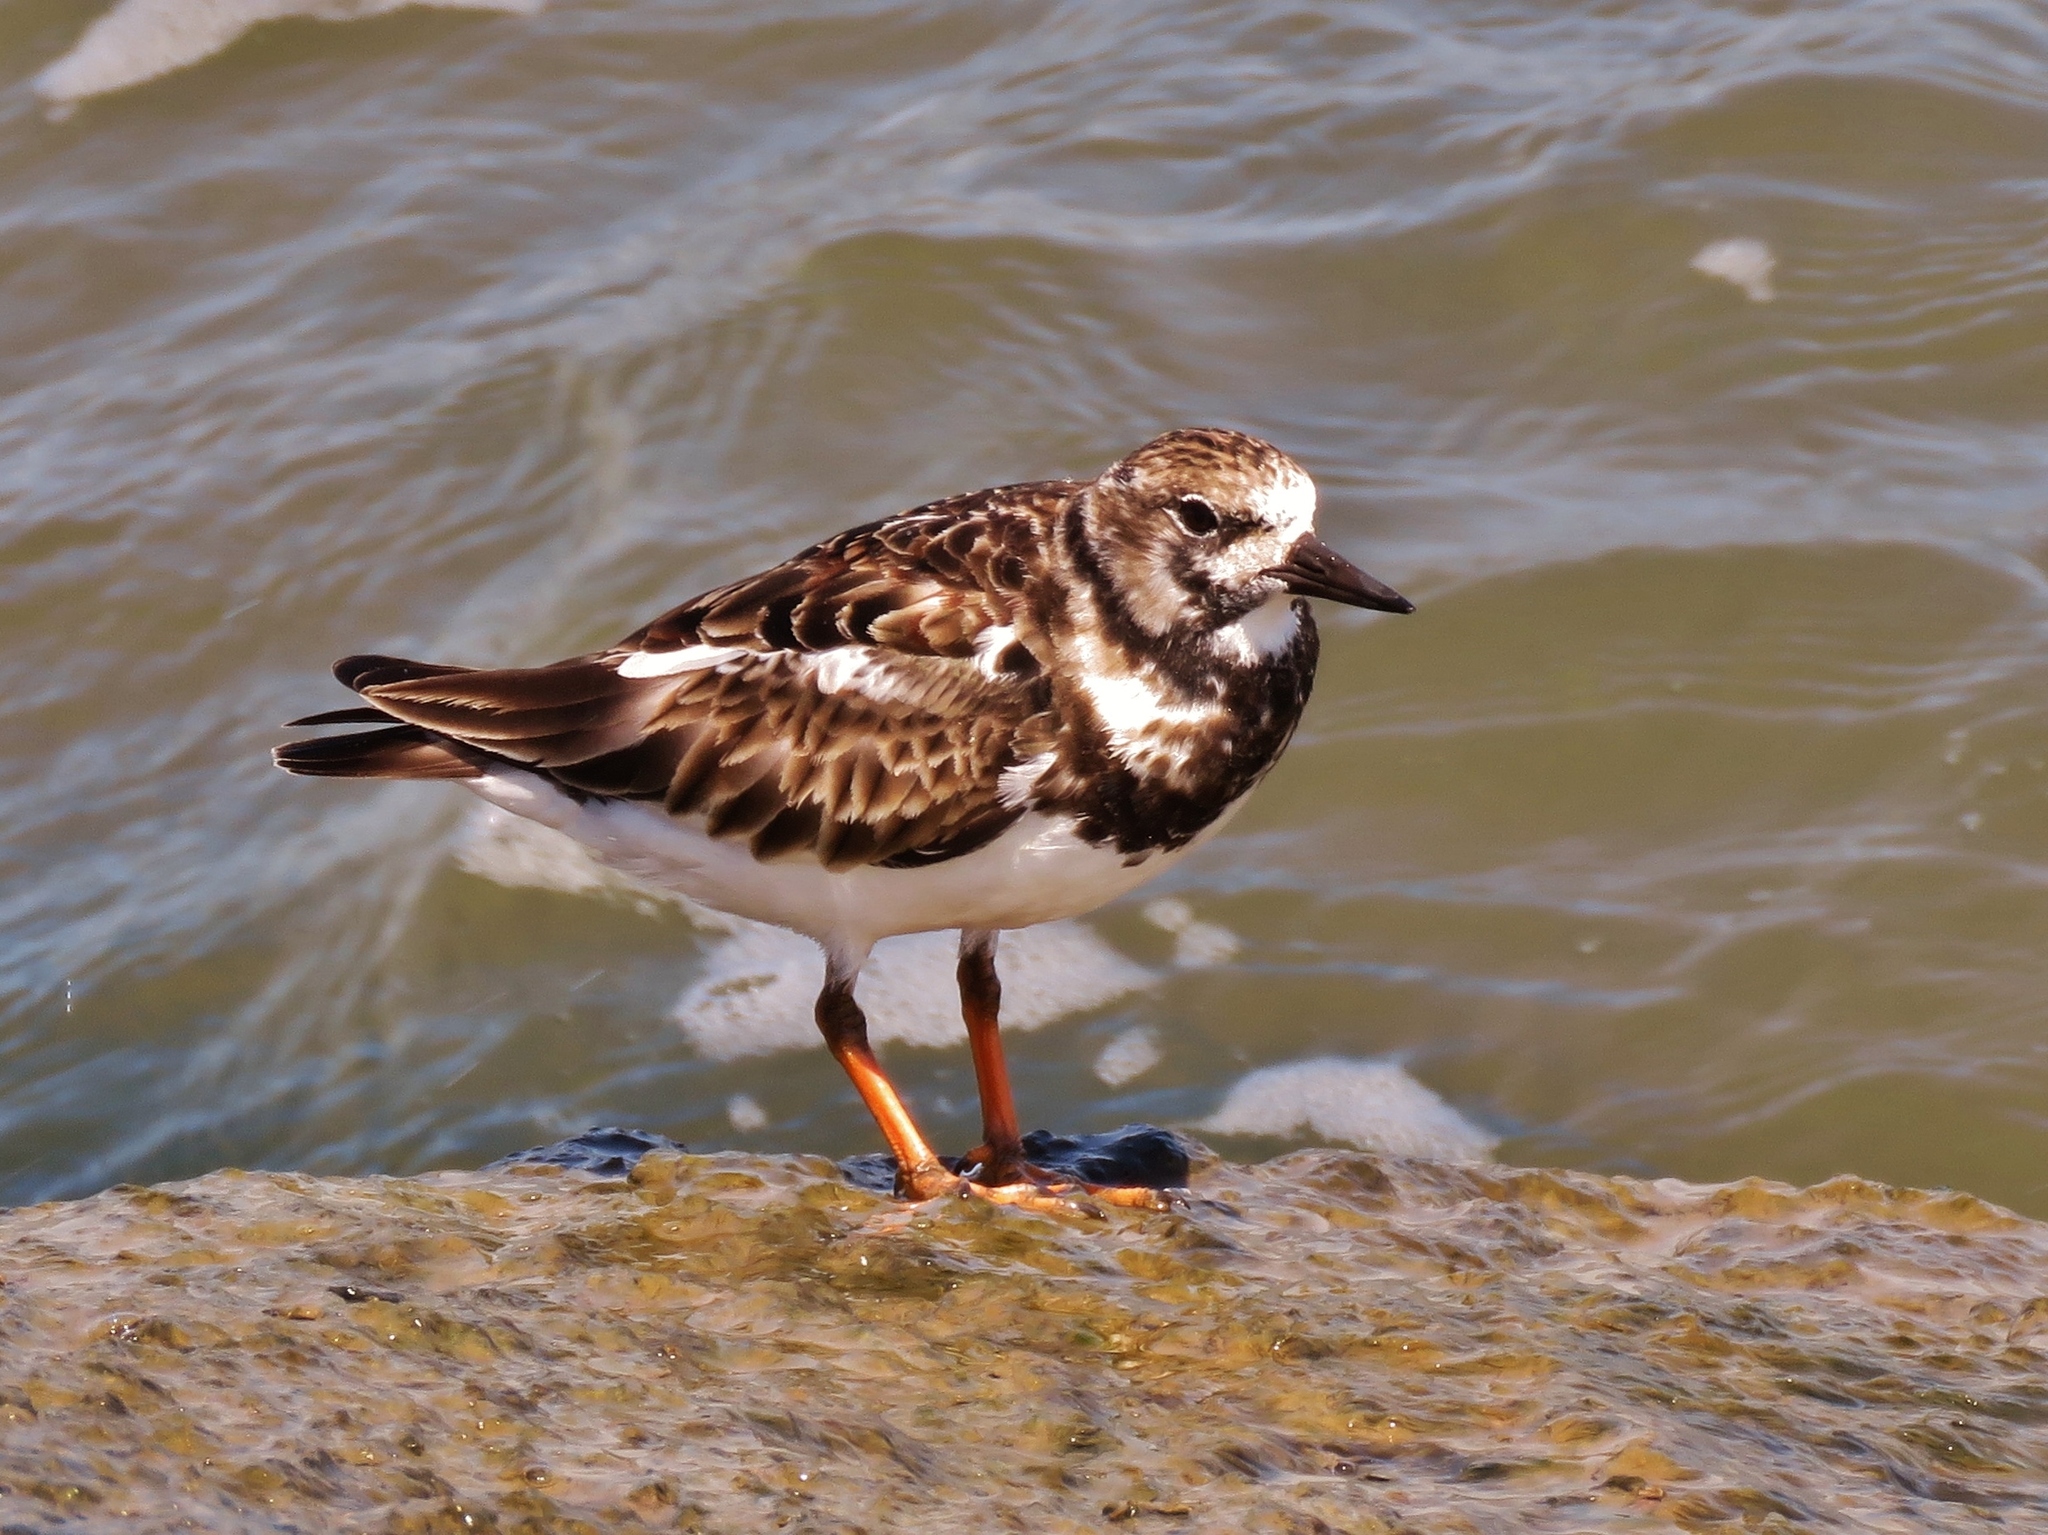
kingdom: Animalia
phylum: Chordata
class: Aves
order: Charadriiformes
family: Scolopacidae
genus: Arenaria
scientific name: Arenaria interpres
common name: Ruddy turnstone
